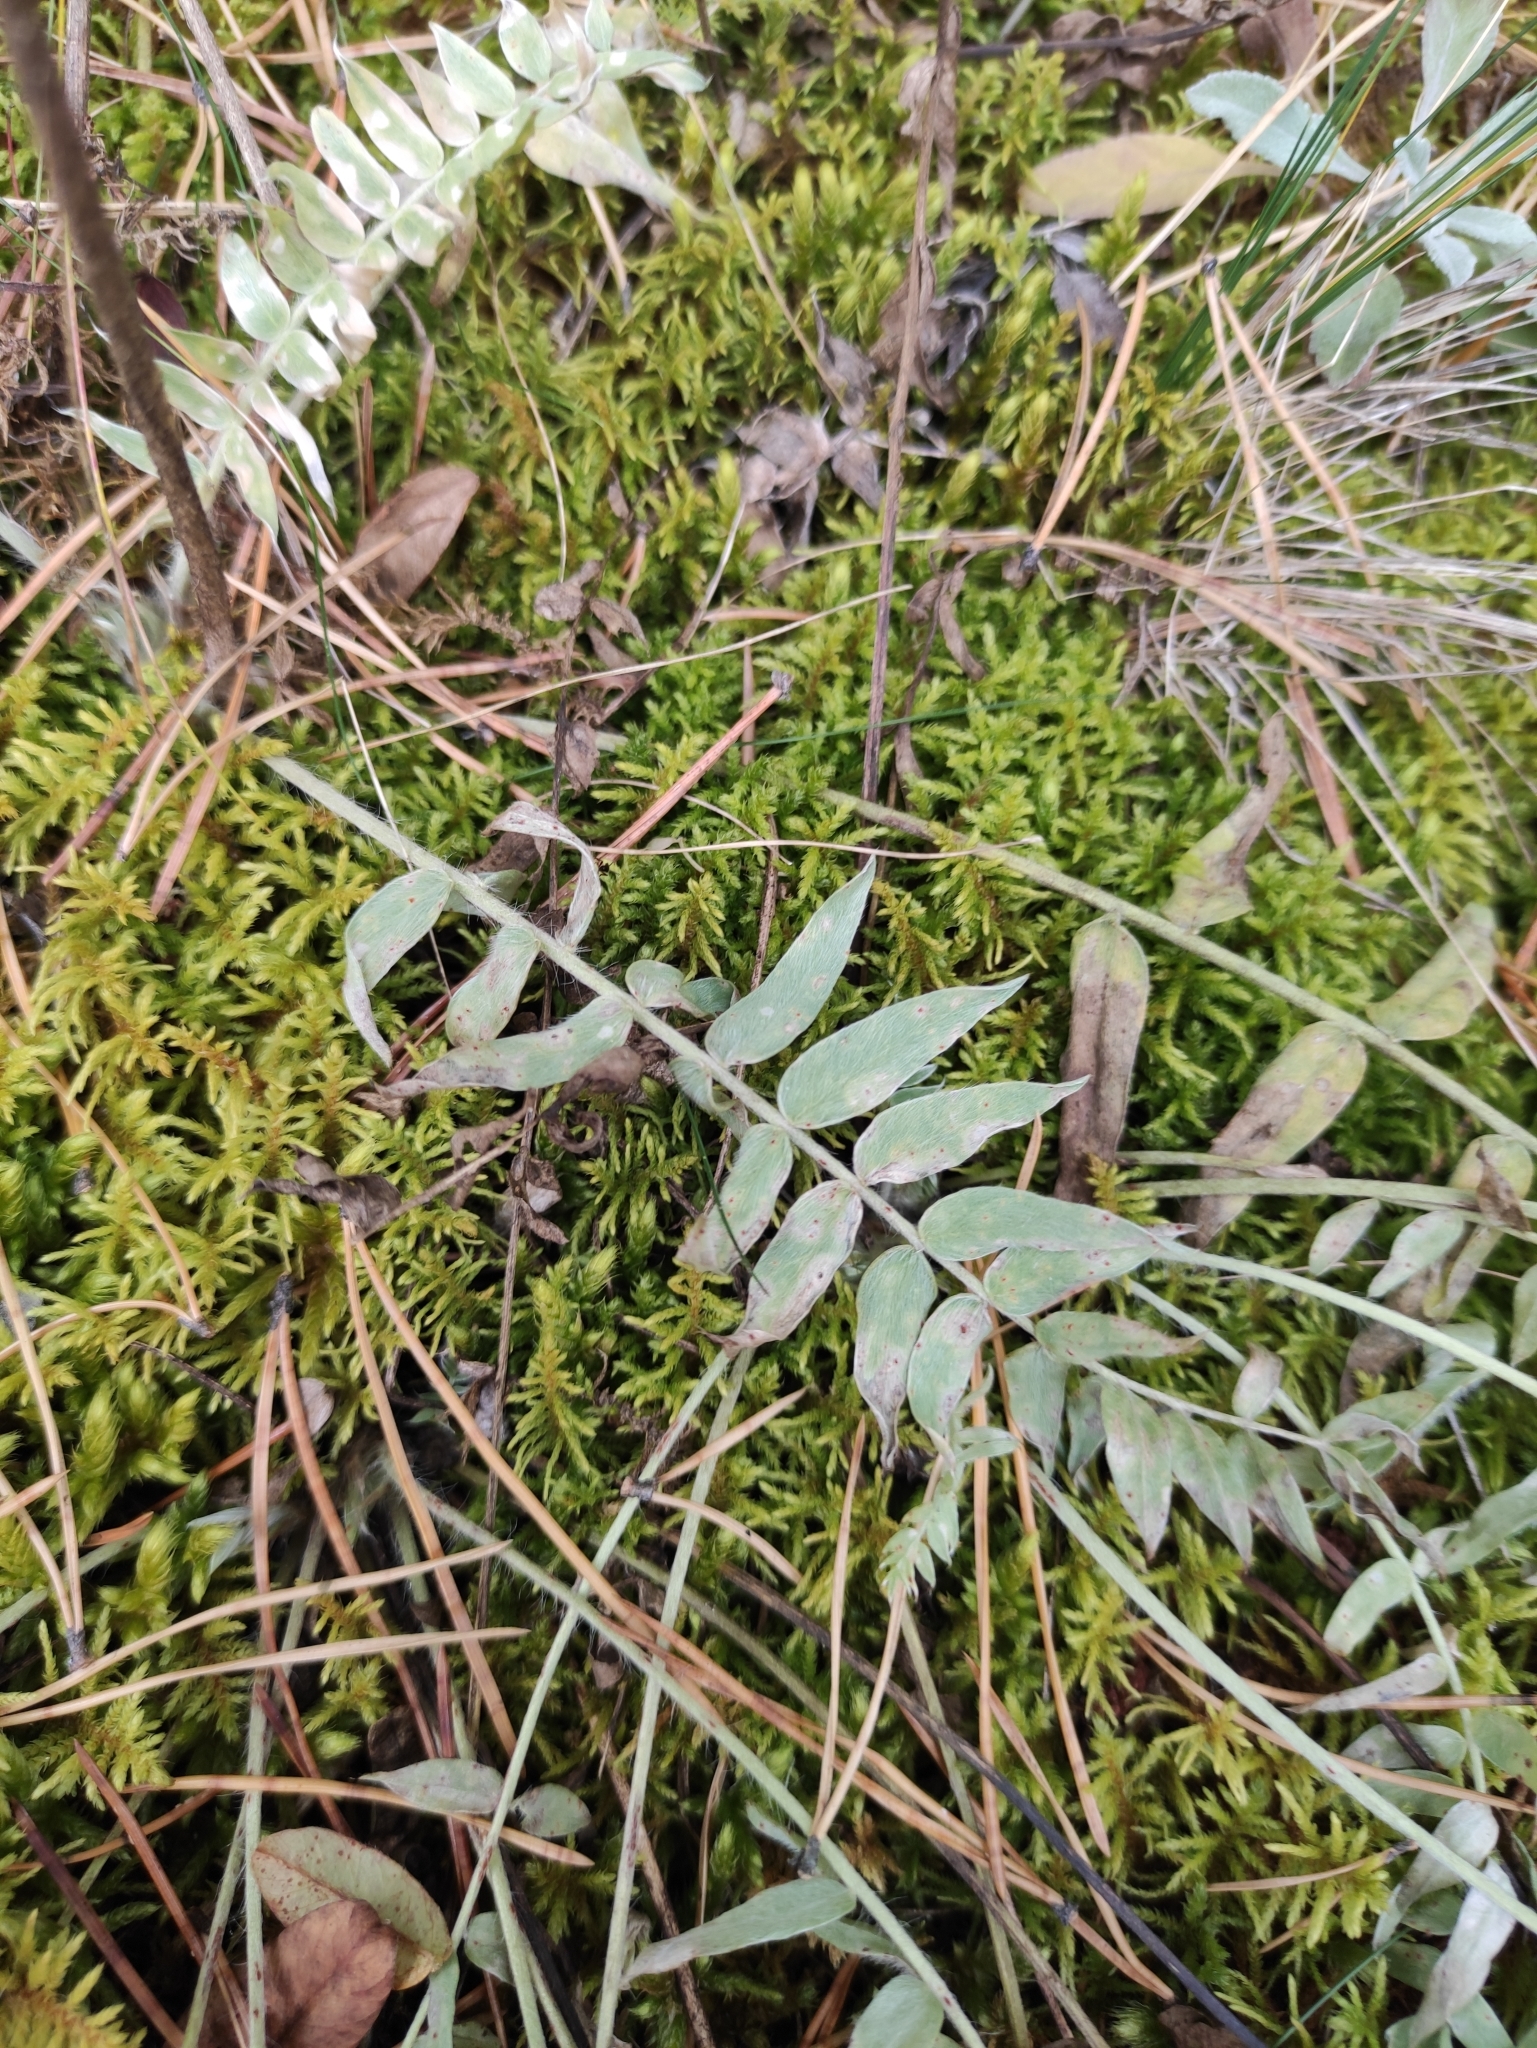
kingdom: Plantae
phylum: Tracheophyta
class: Magnoliopsida
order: Fabales
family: Fabaceae
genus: Oxytropis
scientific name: Oxytropis strobilacea
